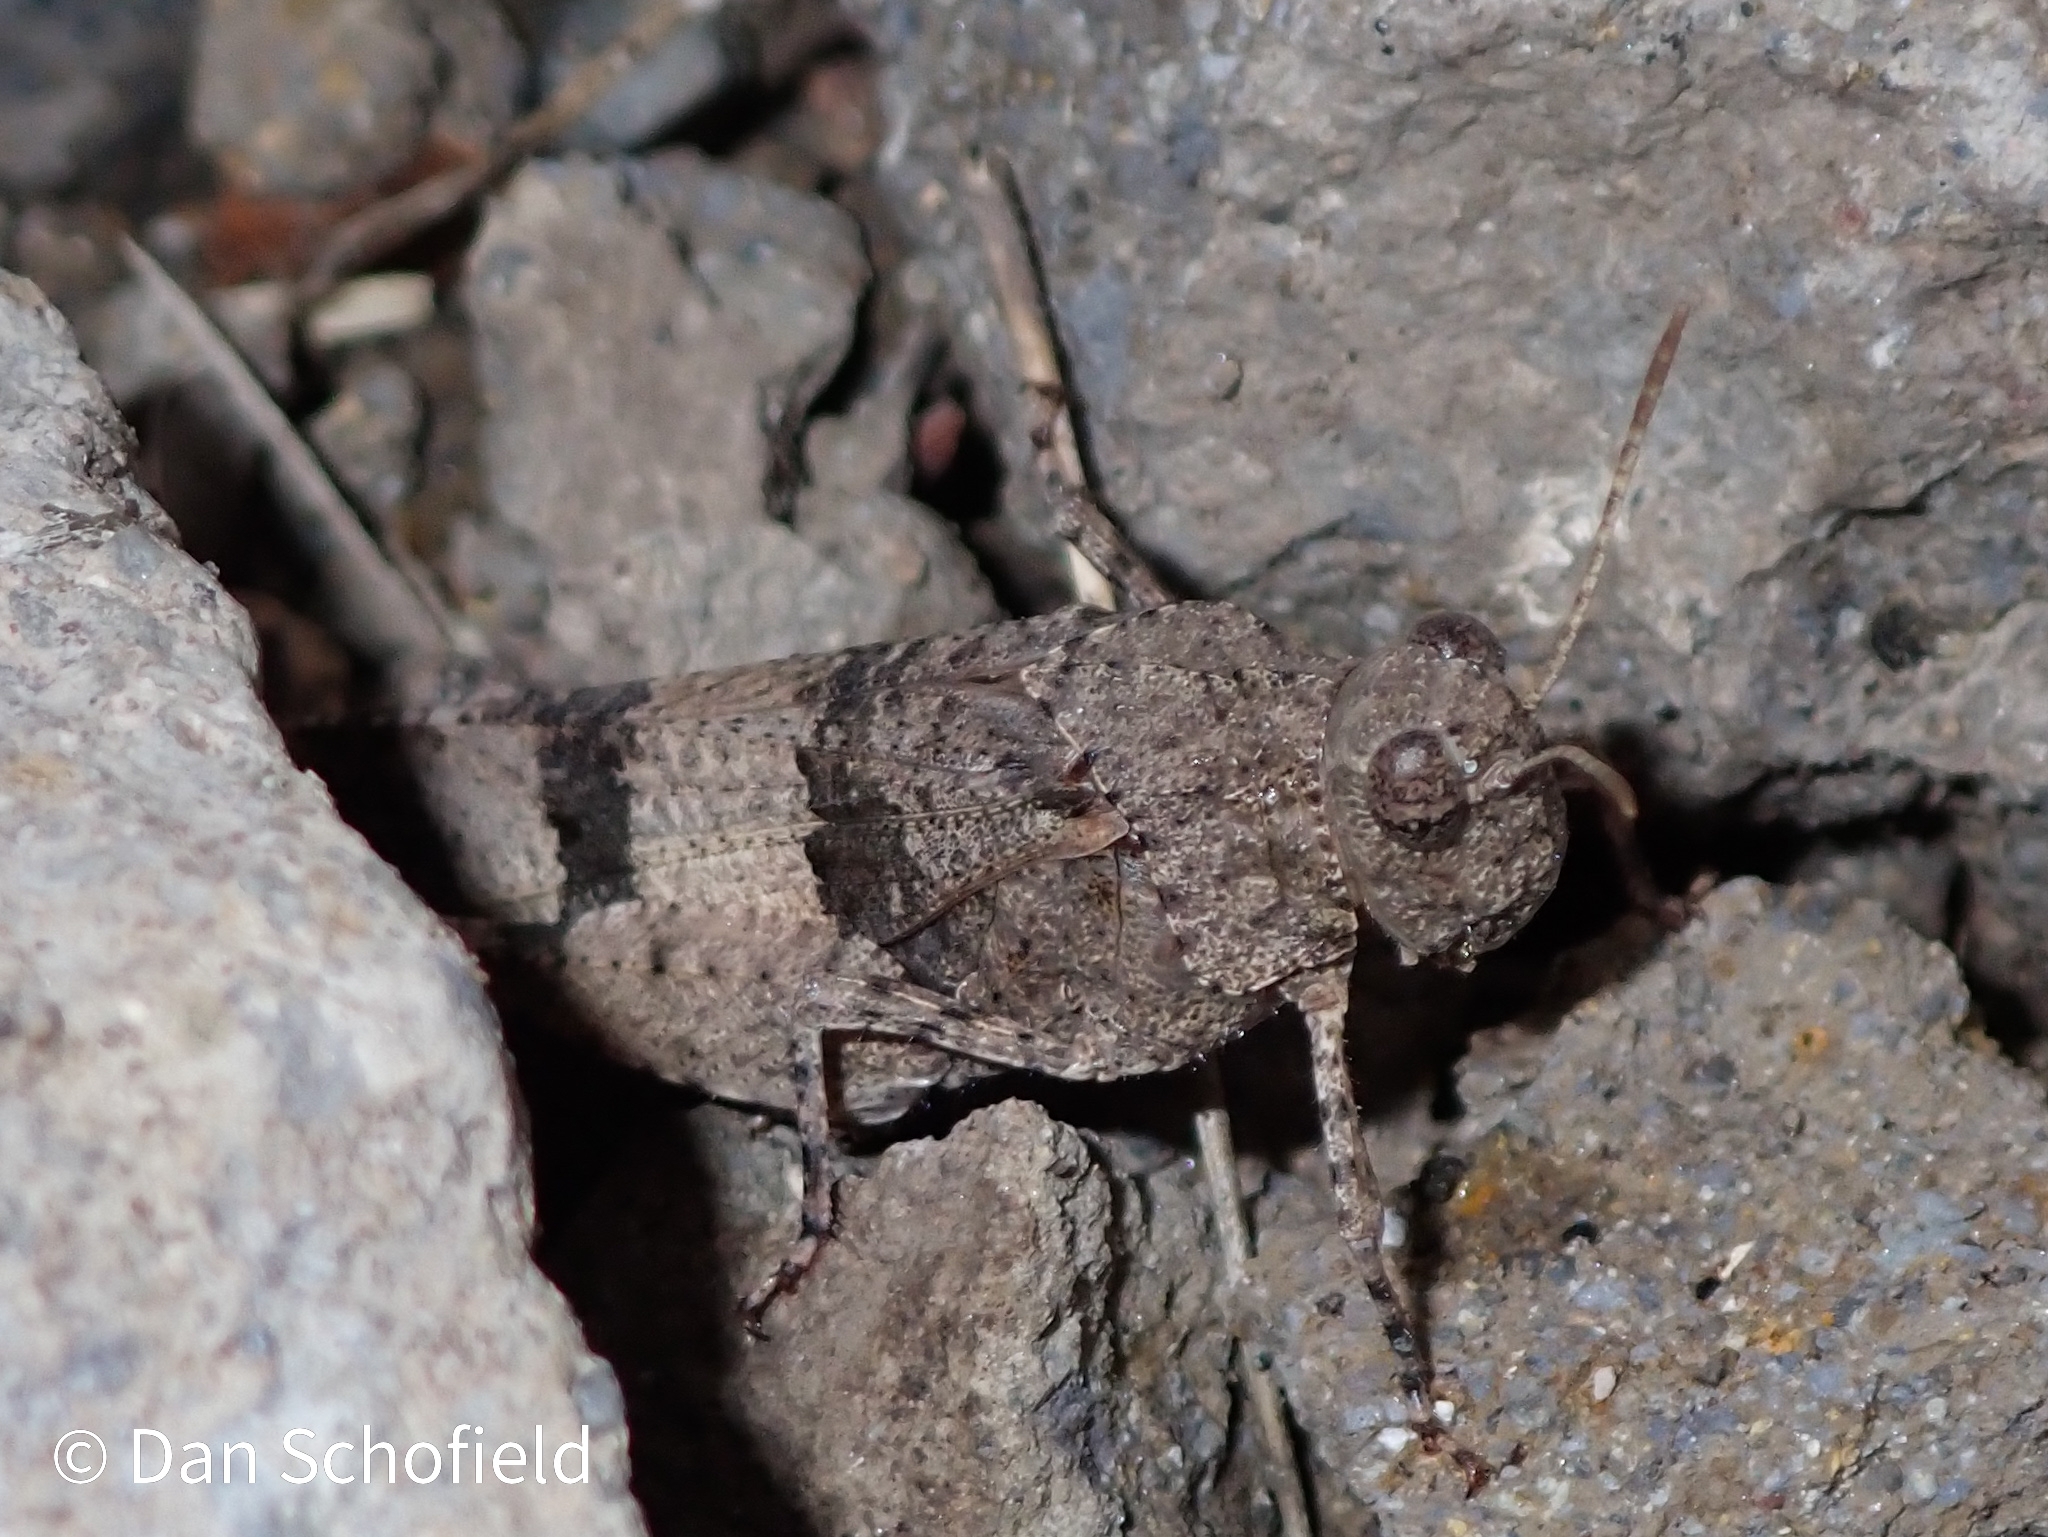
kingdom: Animalia
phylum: Arthropoda
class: Insecta
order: Orthoptera
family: Acrididae
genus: Oedipoda
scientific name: Oedipoda caerulescens
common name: Blue-winged grasshopper
